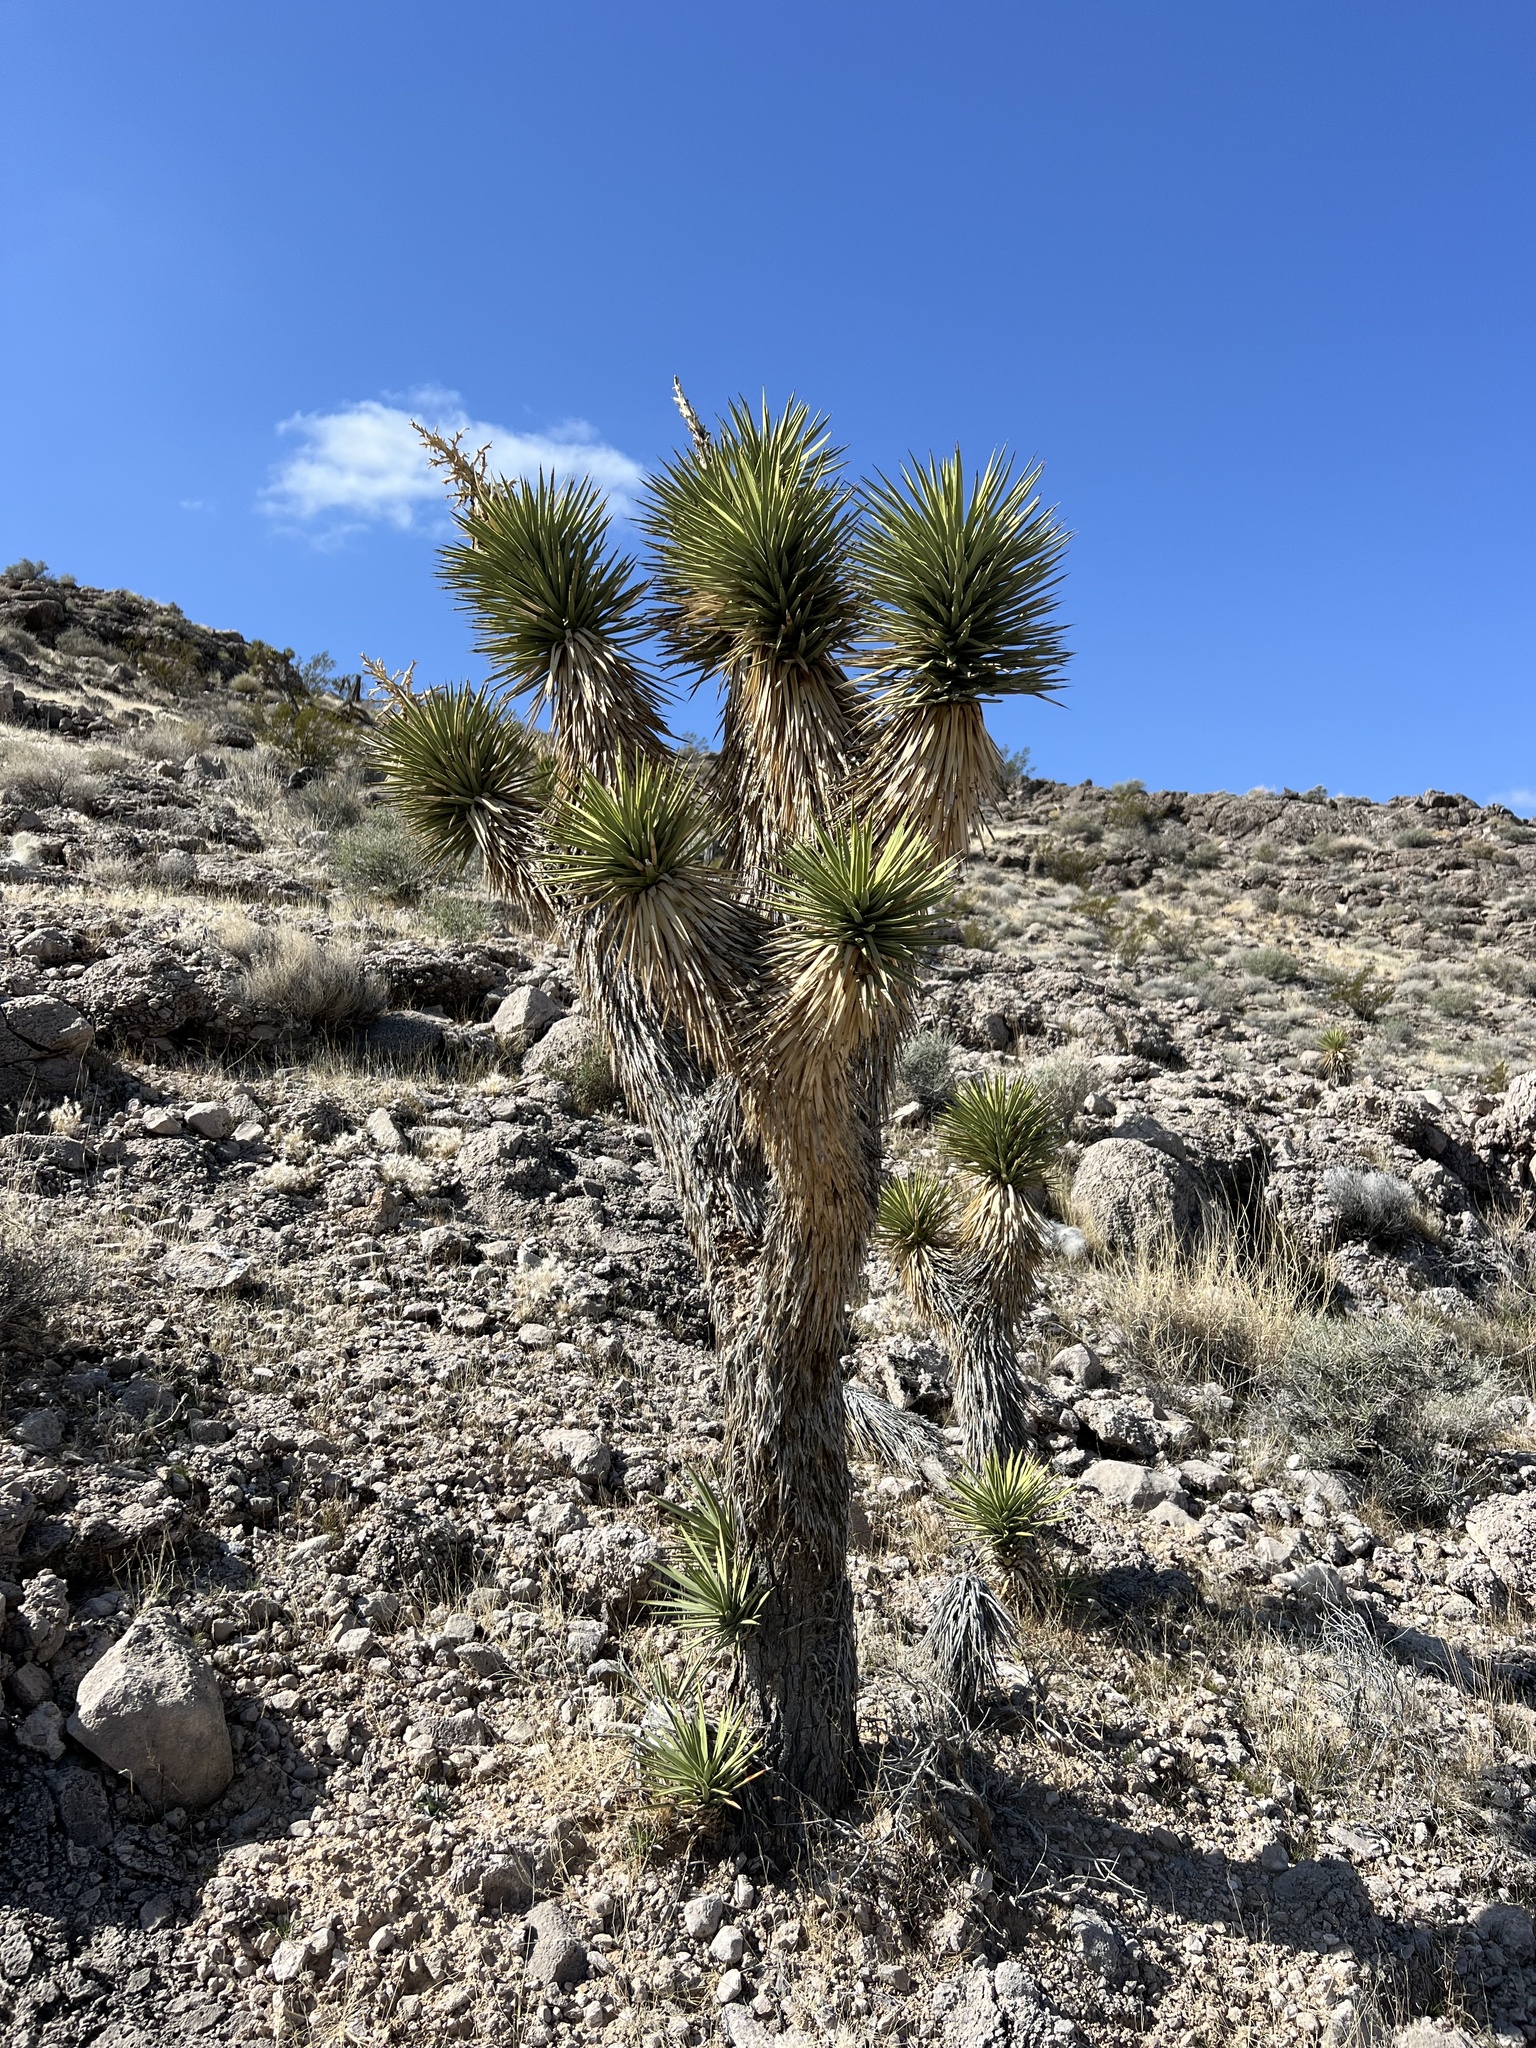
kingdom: Plantae
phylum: Tracheophyta
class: Liliopsida
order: Asparagales
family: Asparagaceae
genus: Yucca
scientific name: Yucca brevifolia
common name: Joshua tree
